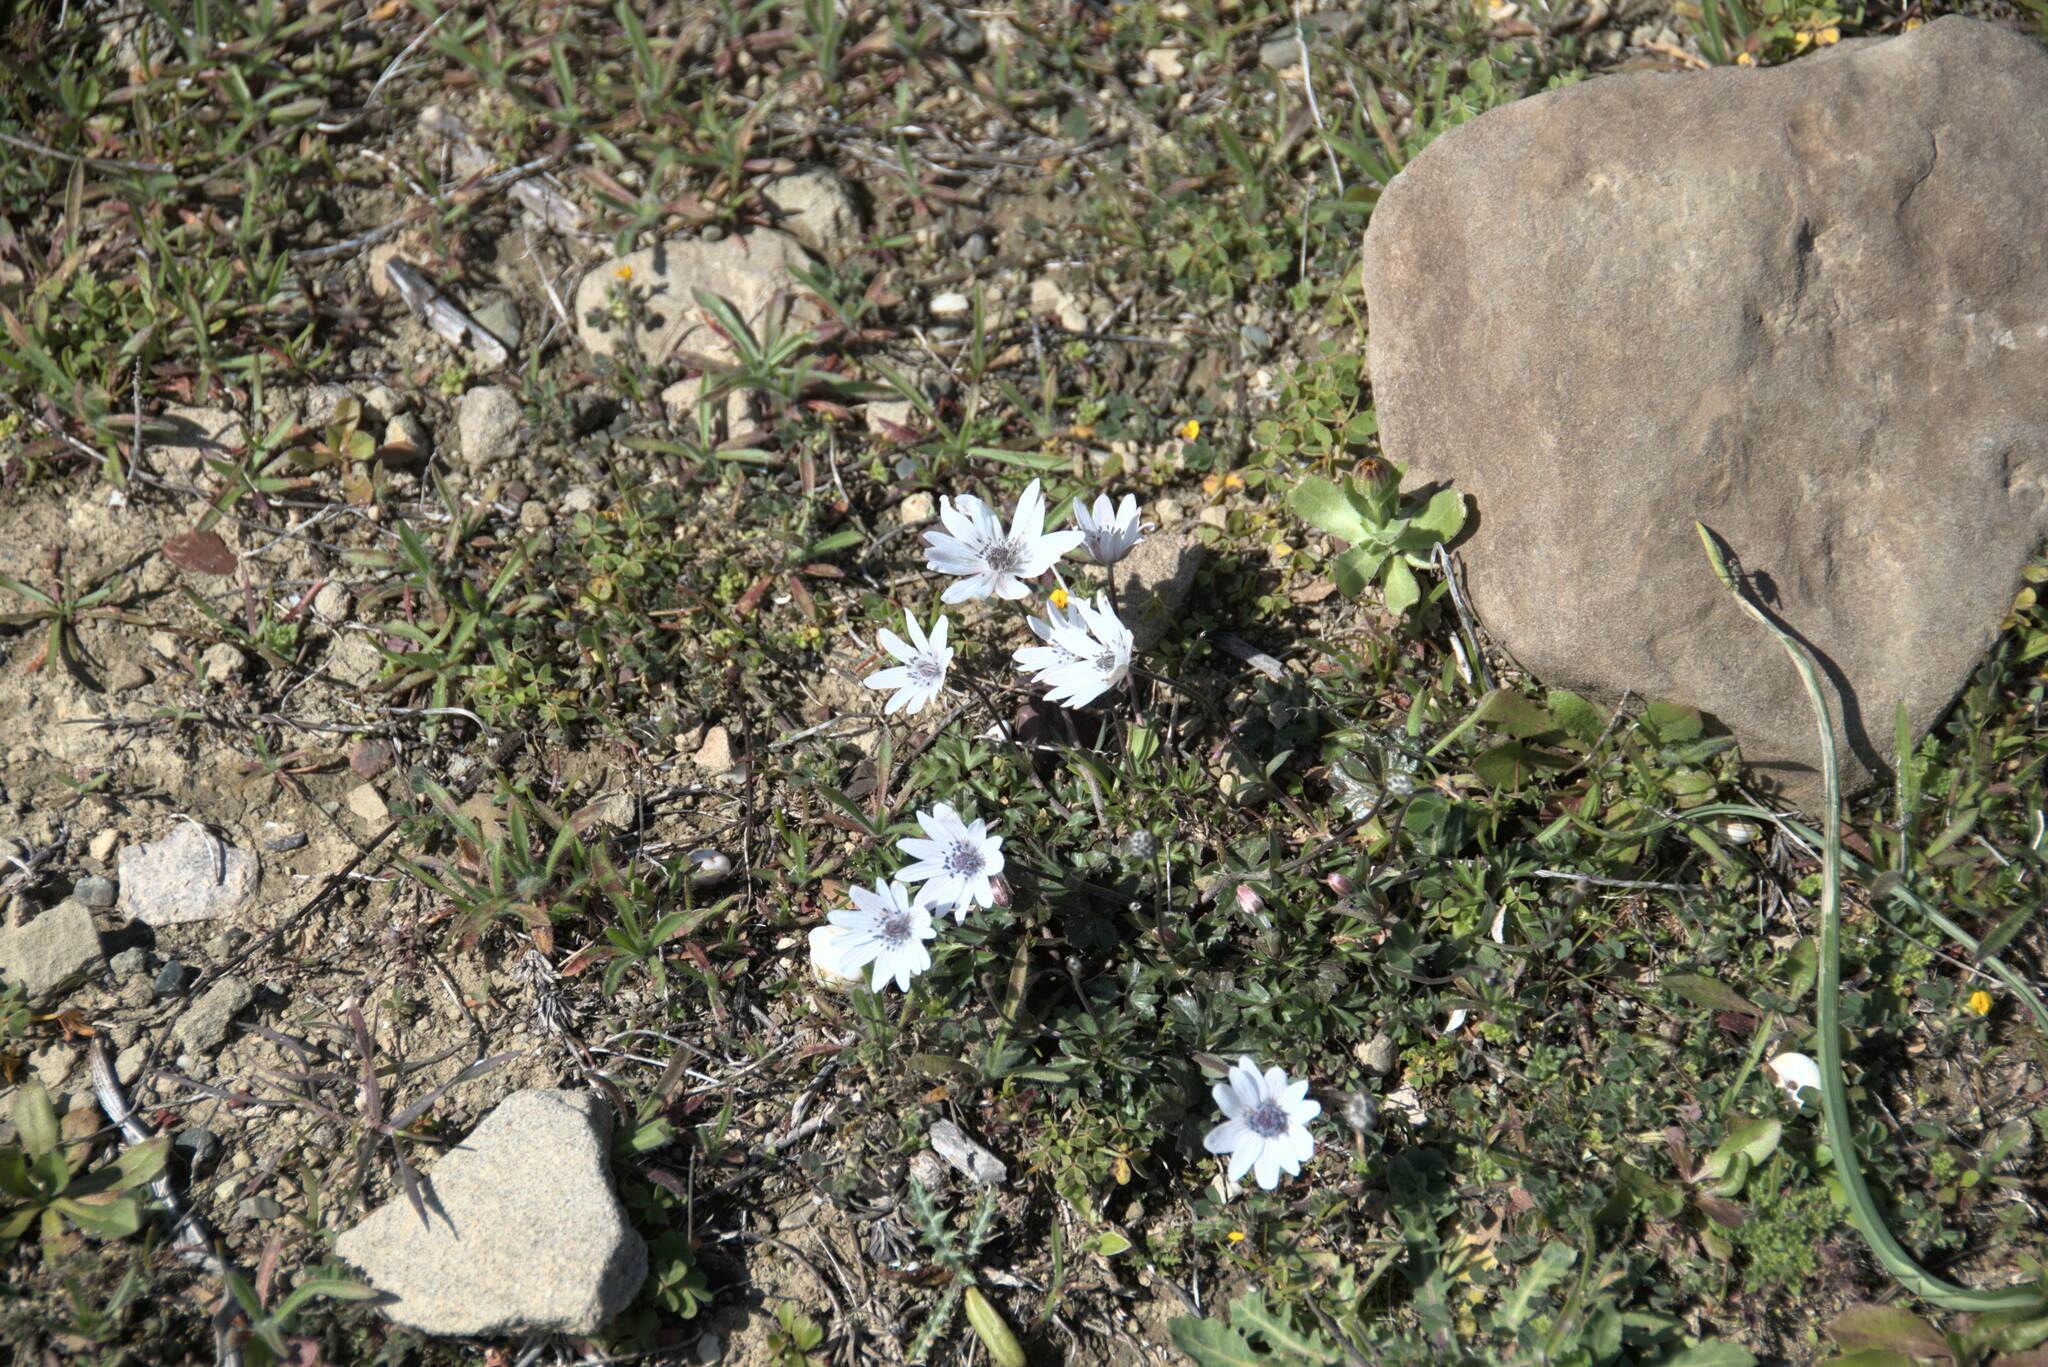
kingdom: Plantae
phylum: Tracheophyta
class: Magnoliopsida
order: Ranunculales
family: Ranunculaceae
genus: Anemone
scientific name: Anemone hortensis
